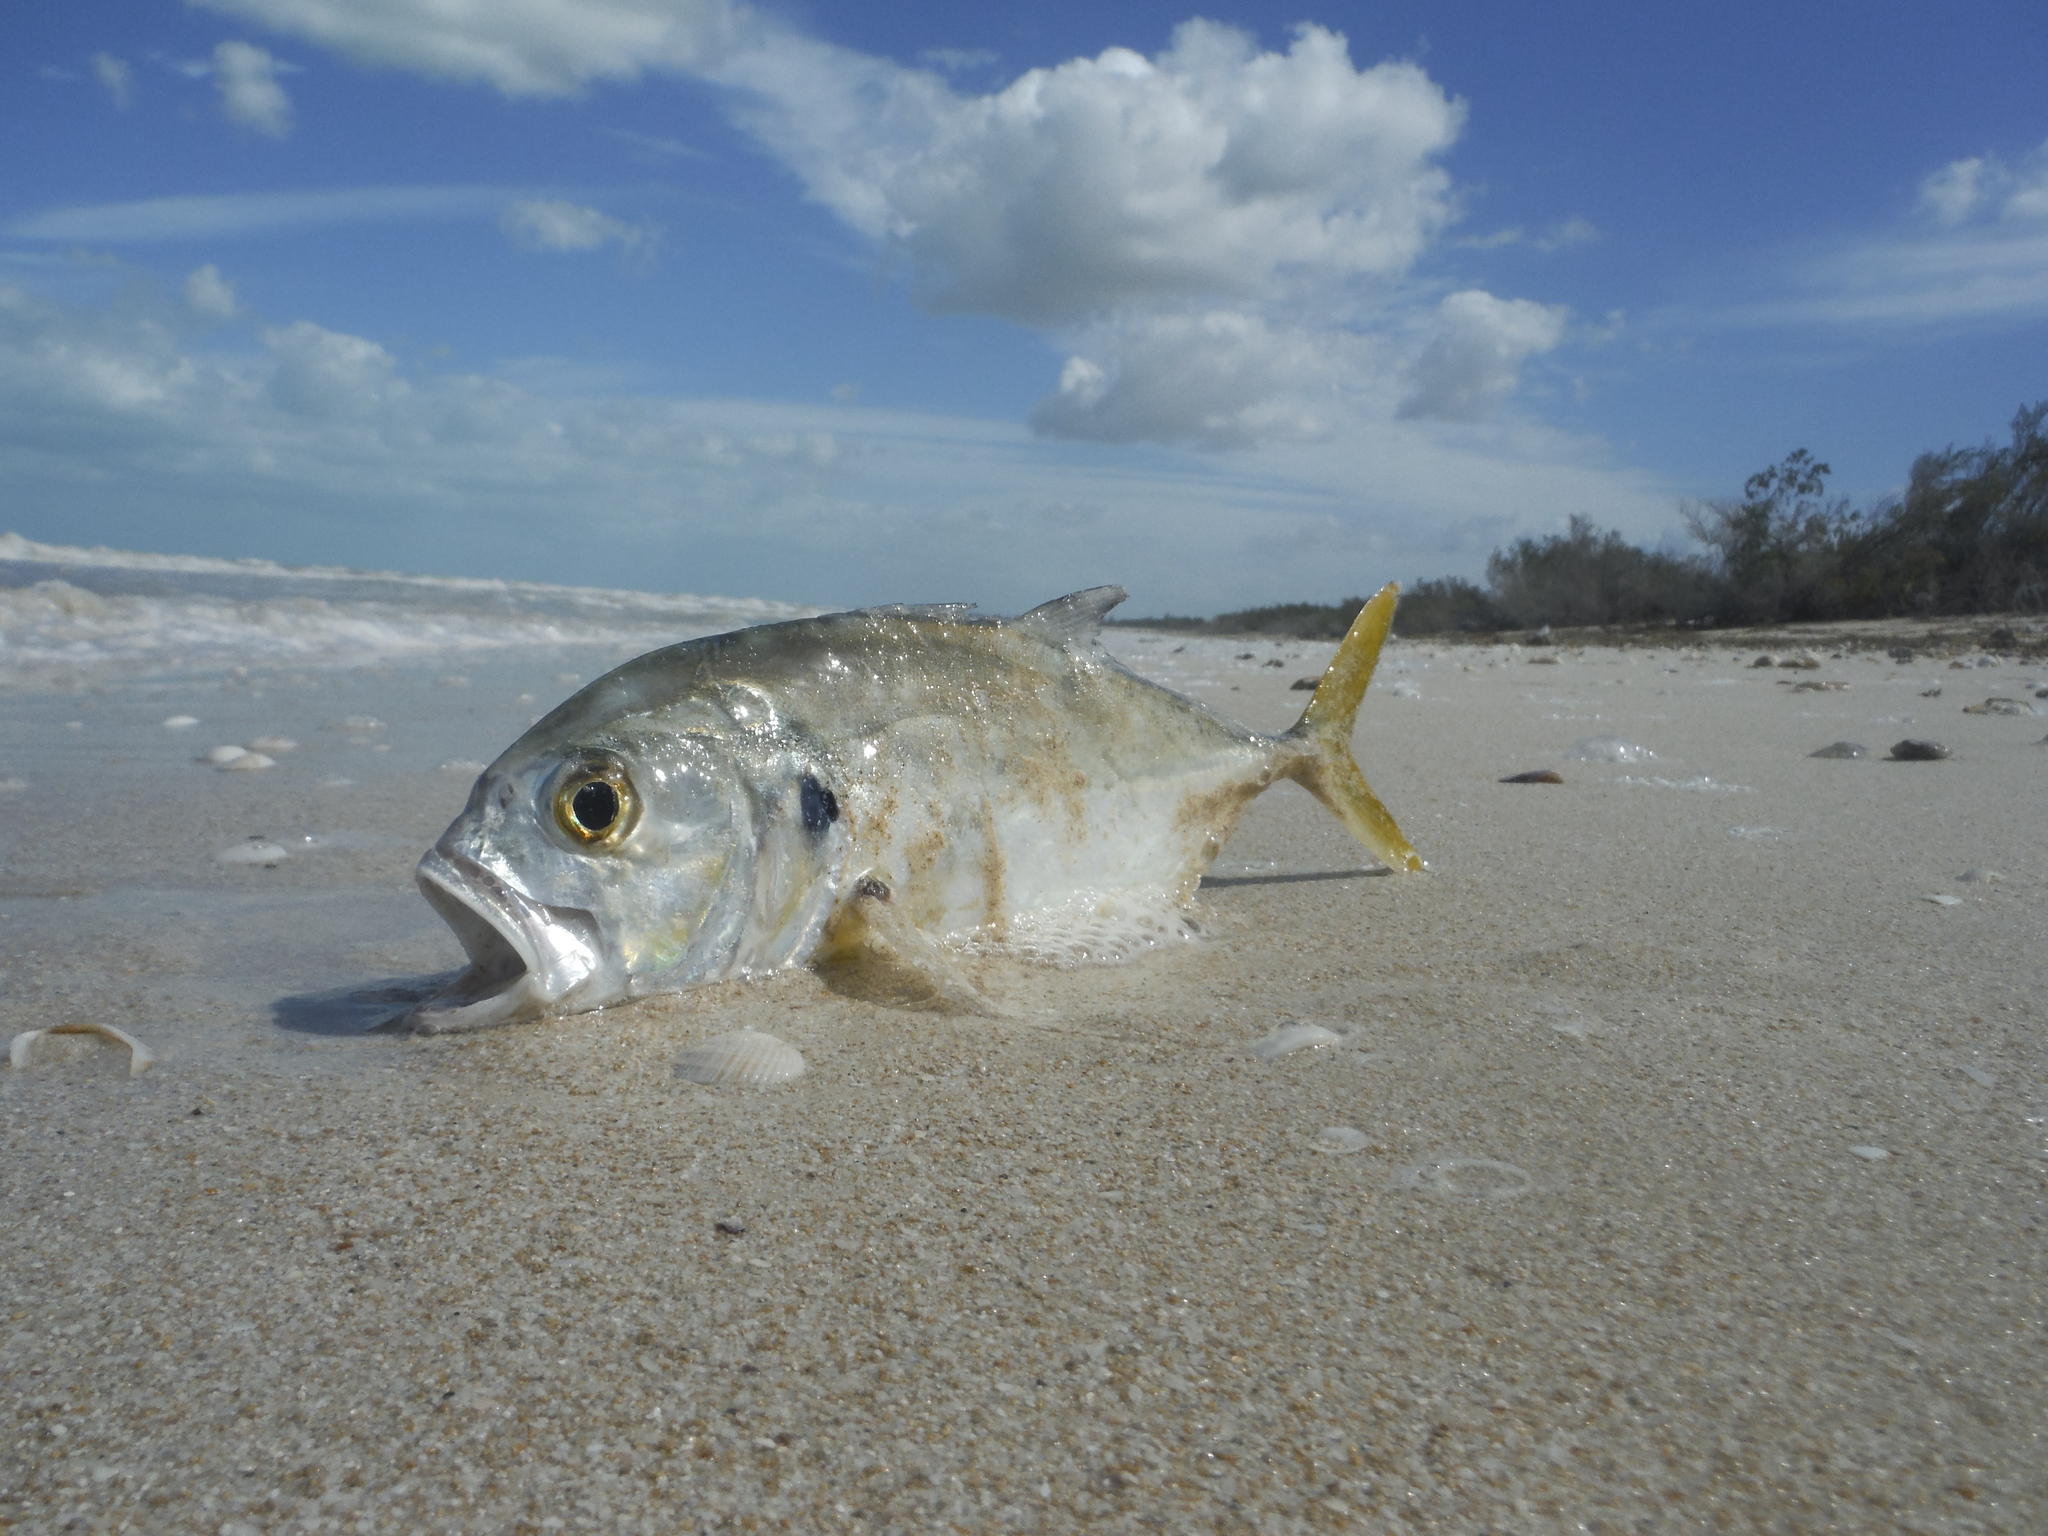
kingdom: Animalia
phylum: Chordata
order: Perciformes
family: Carangidae
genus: Caranx
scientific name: Caranx hippos
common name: Common jack
